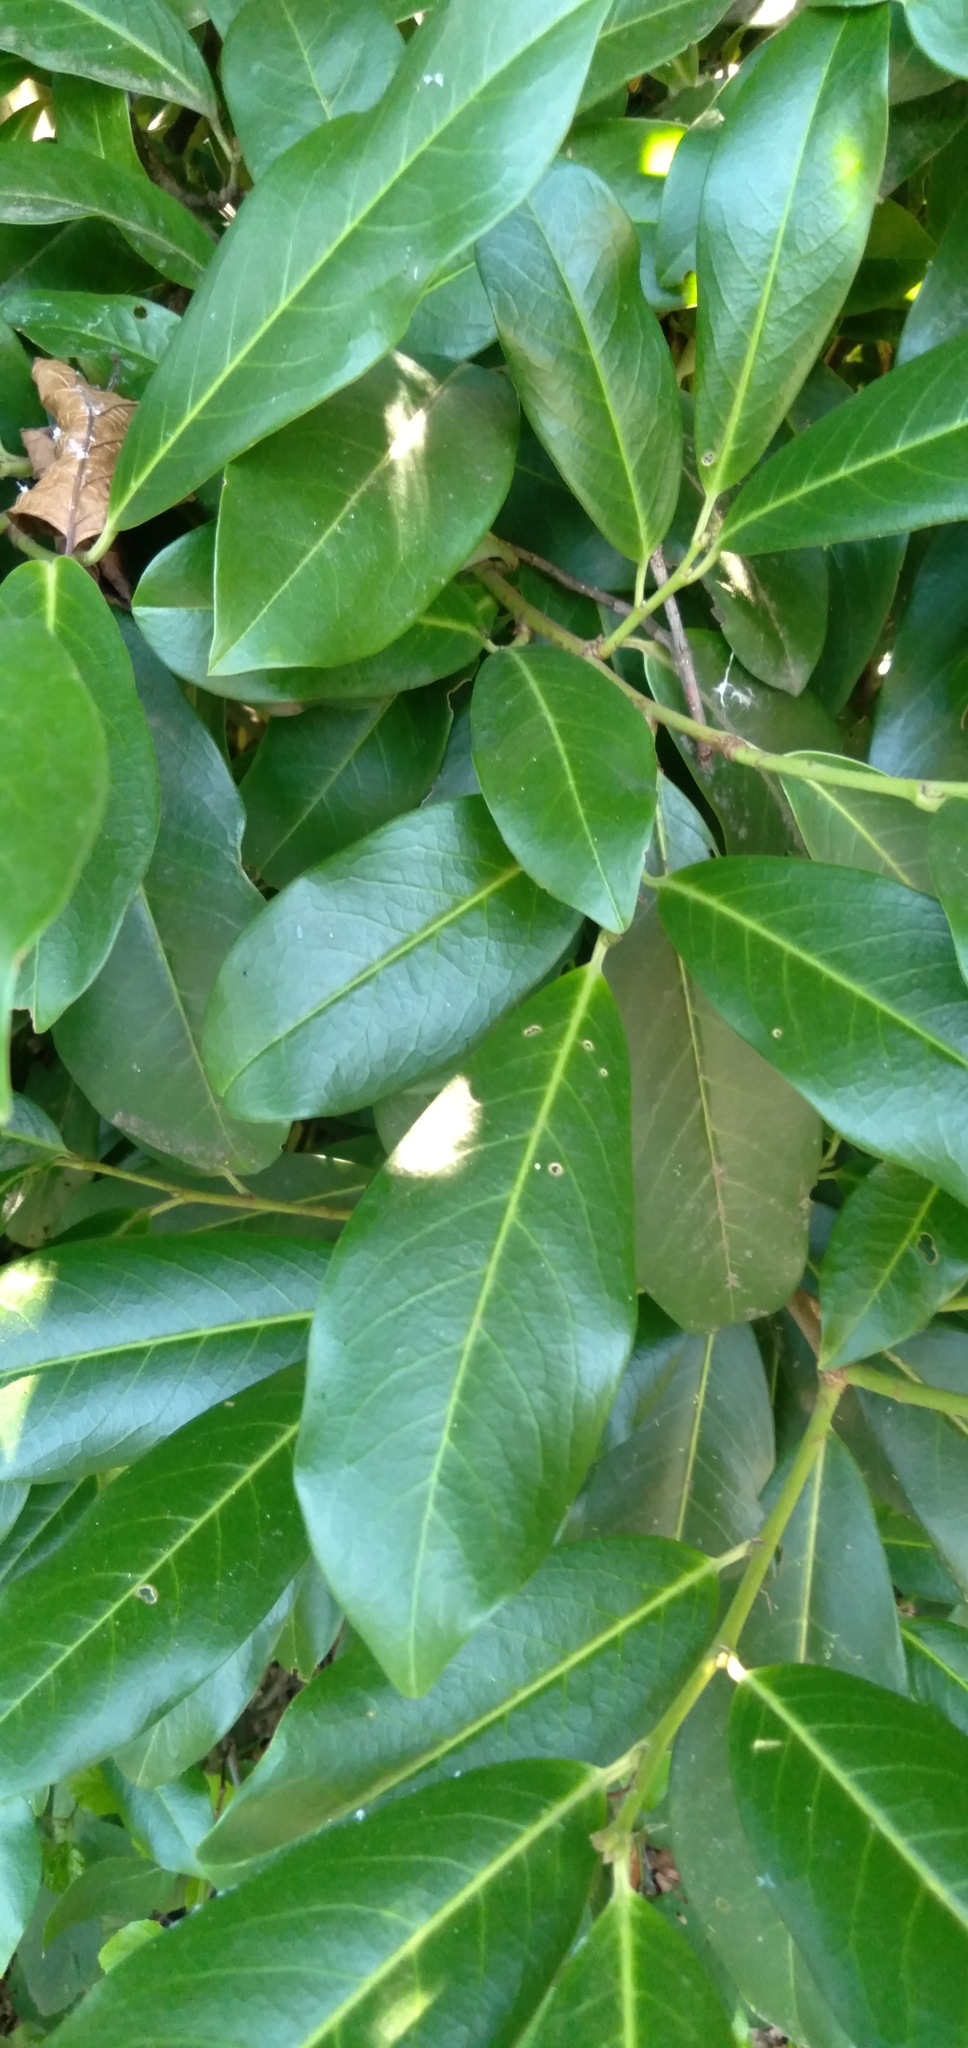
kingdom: Plantae
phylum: Tracheophyta
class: Magnoliopsida
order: Rosales
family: Rosaceae
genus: Prunus
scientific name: Prunus laurocerasus
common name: Cherry laurel
